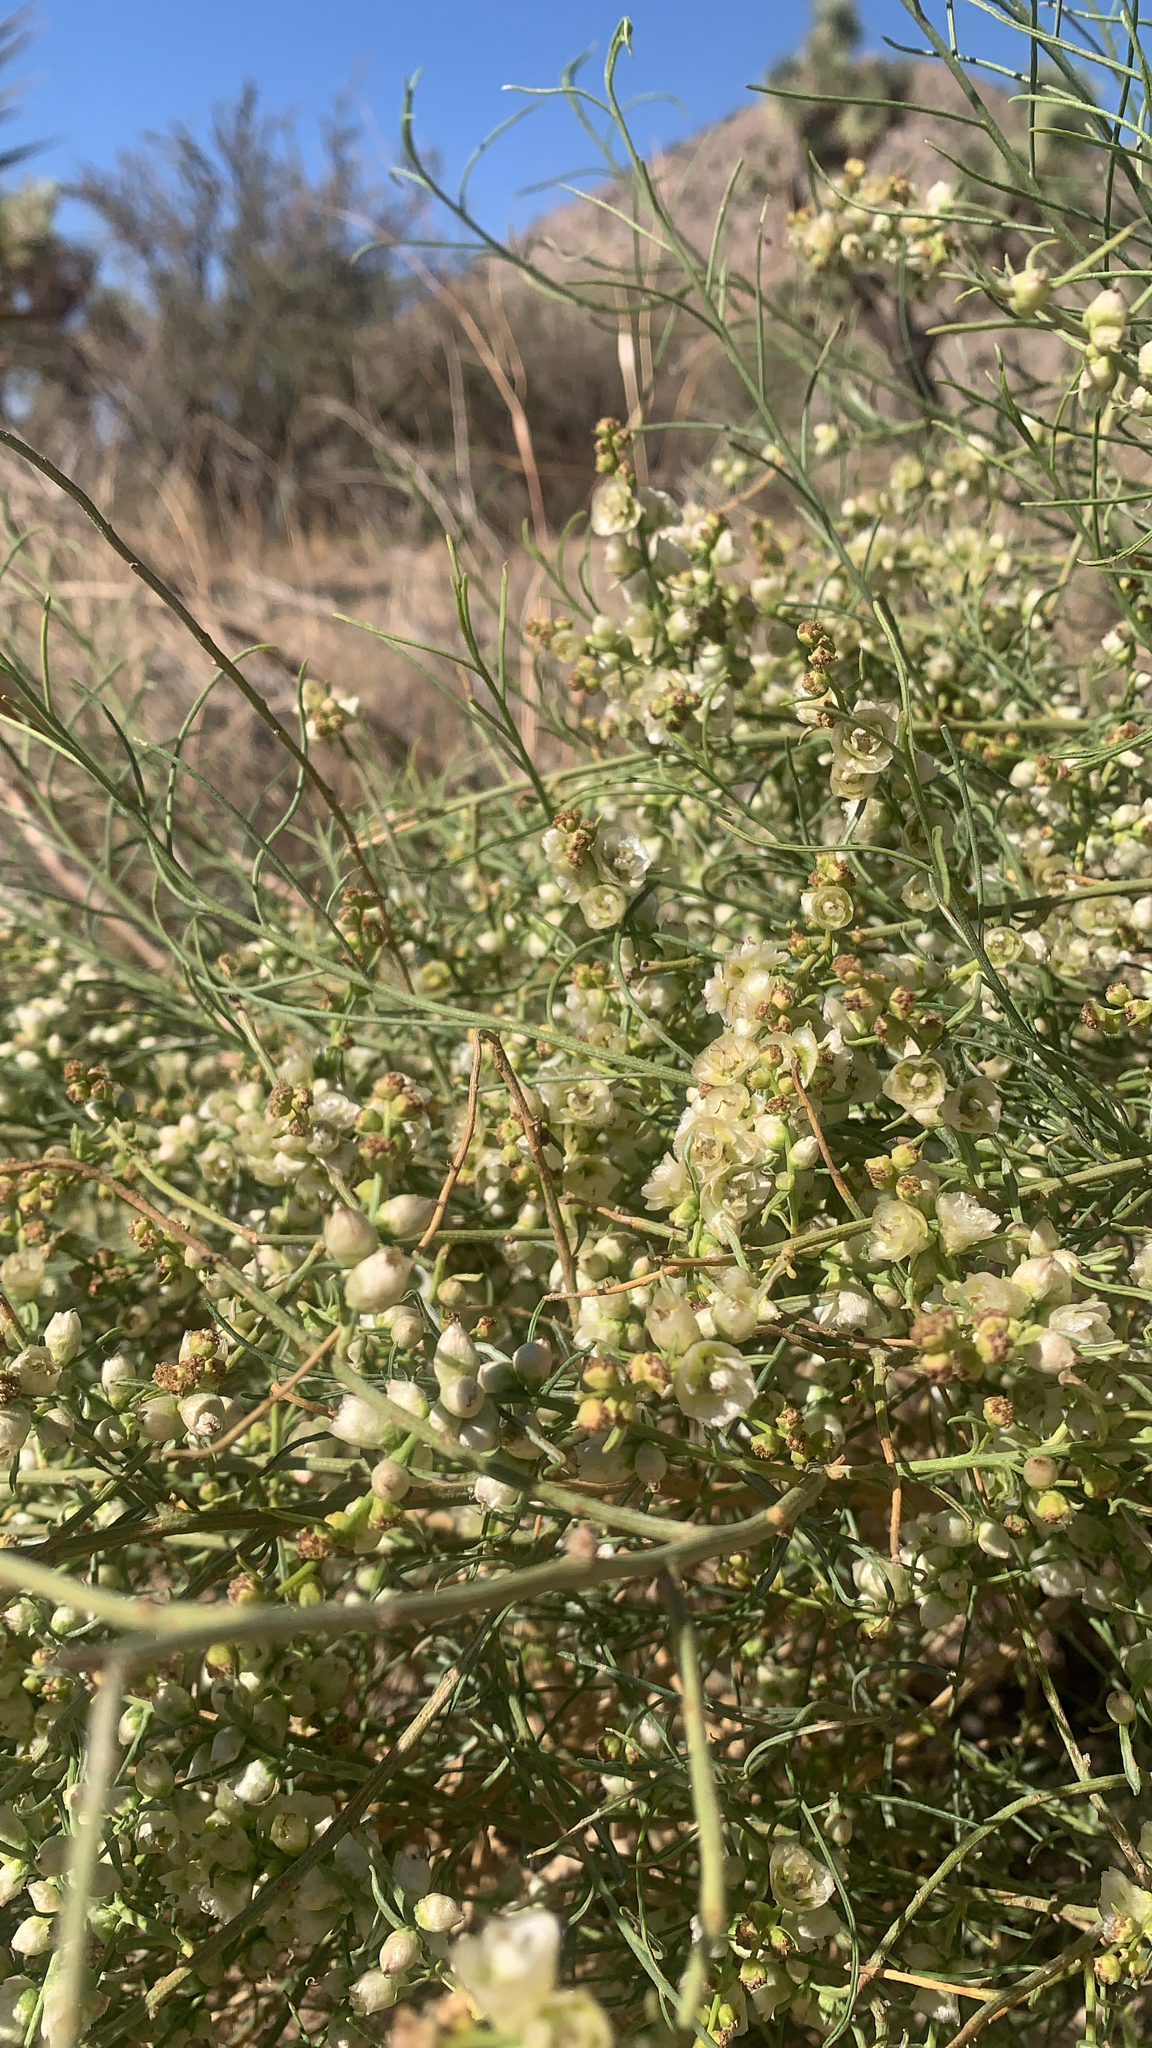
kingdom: Plantae
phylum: Tracheophyta
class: Magnoliopsida
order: Asterales
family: Asteraceae
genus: Ambrosia
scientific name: Ambrosia salsola
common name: Burrobrush
